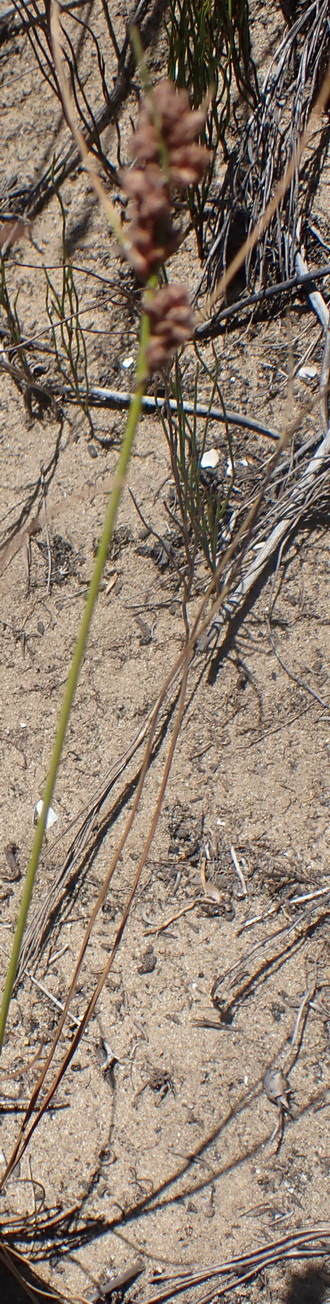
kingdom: Plantae
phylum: Tracheophyta
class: Liliopsida
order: Poales
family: Cyperaceae
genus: Ficinia
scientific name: Ficinia bulbosa
